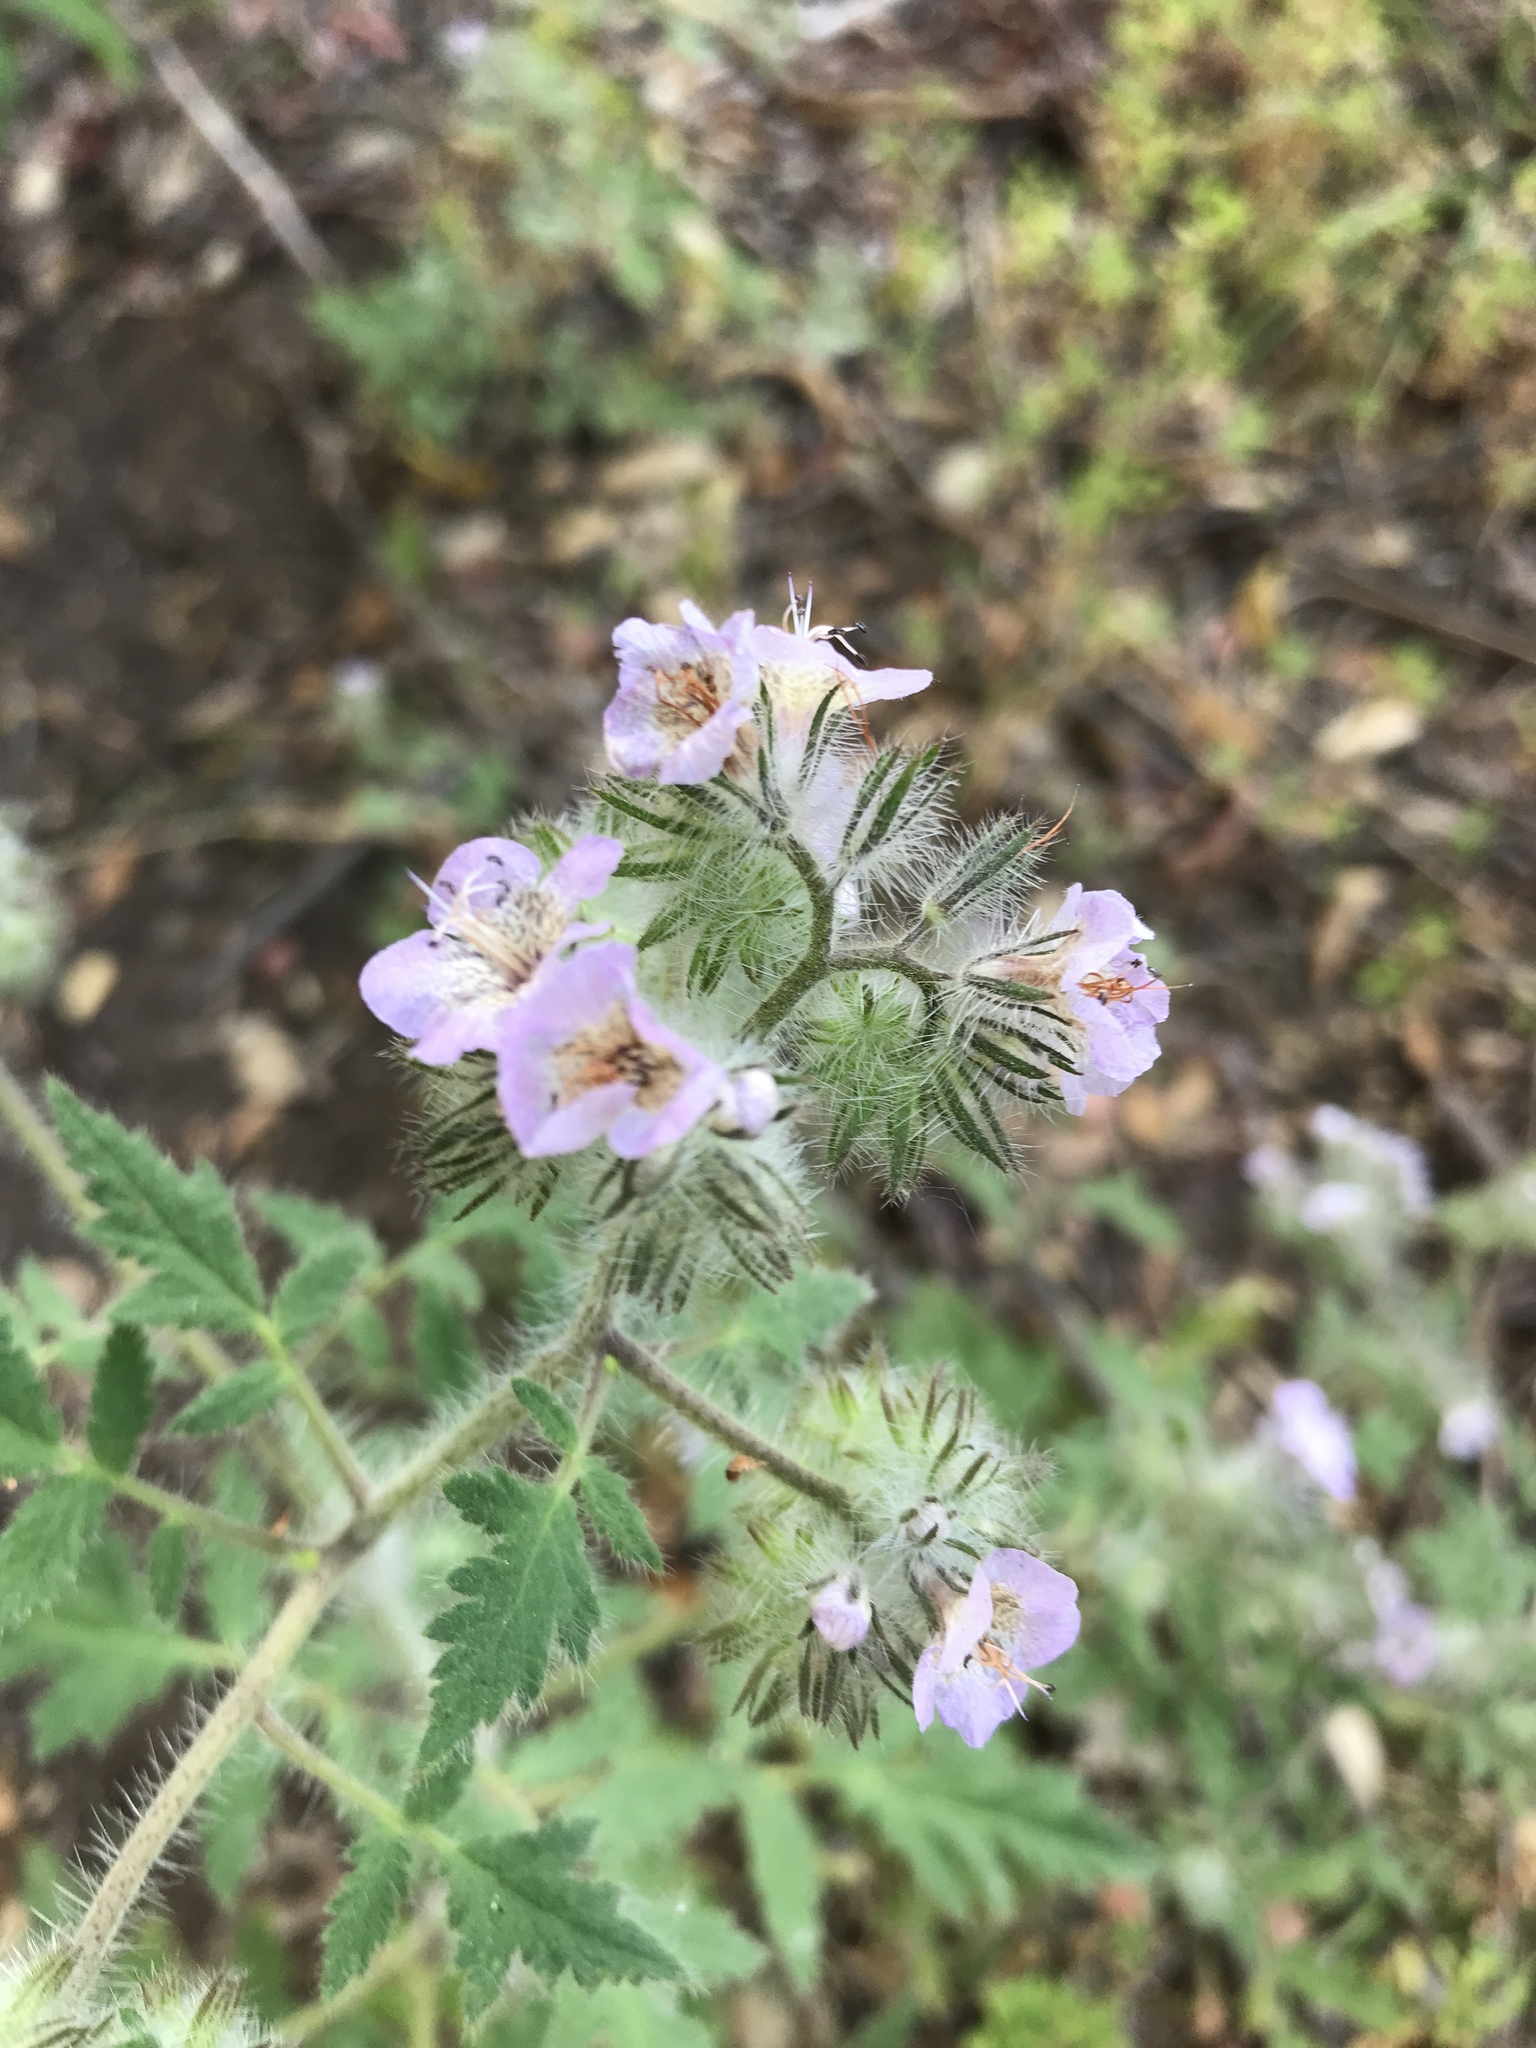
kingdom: Plantae
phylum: Tracheophyta
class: Magnoliopsida
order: Boraginales
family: Hydrophyllaceae
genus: Phacelia
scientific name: Phacelia cicutaria
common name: Caterpillar phacelia
